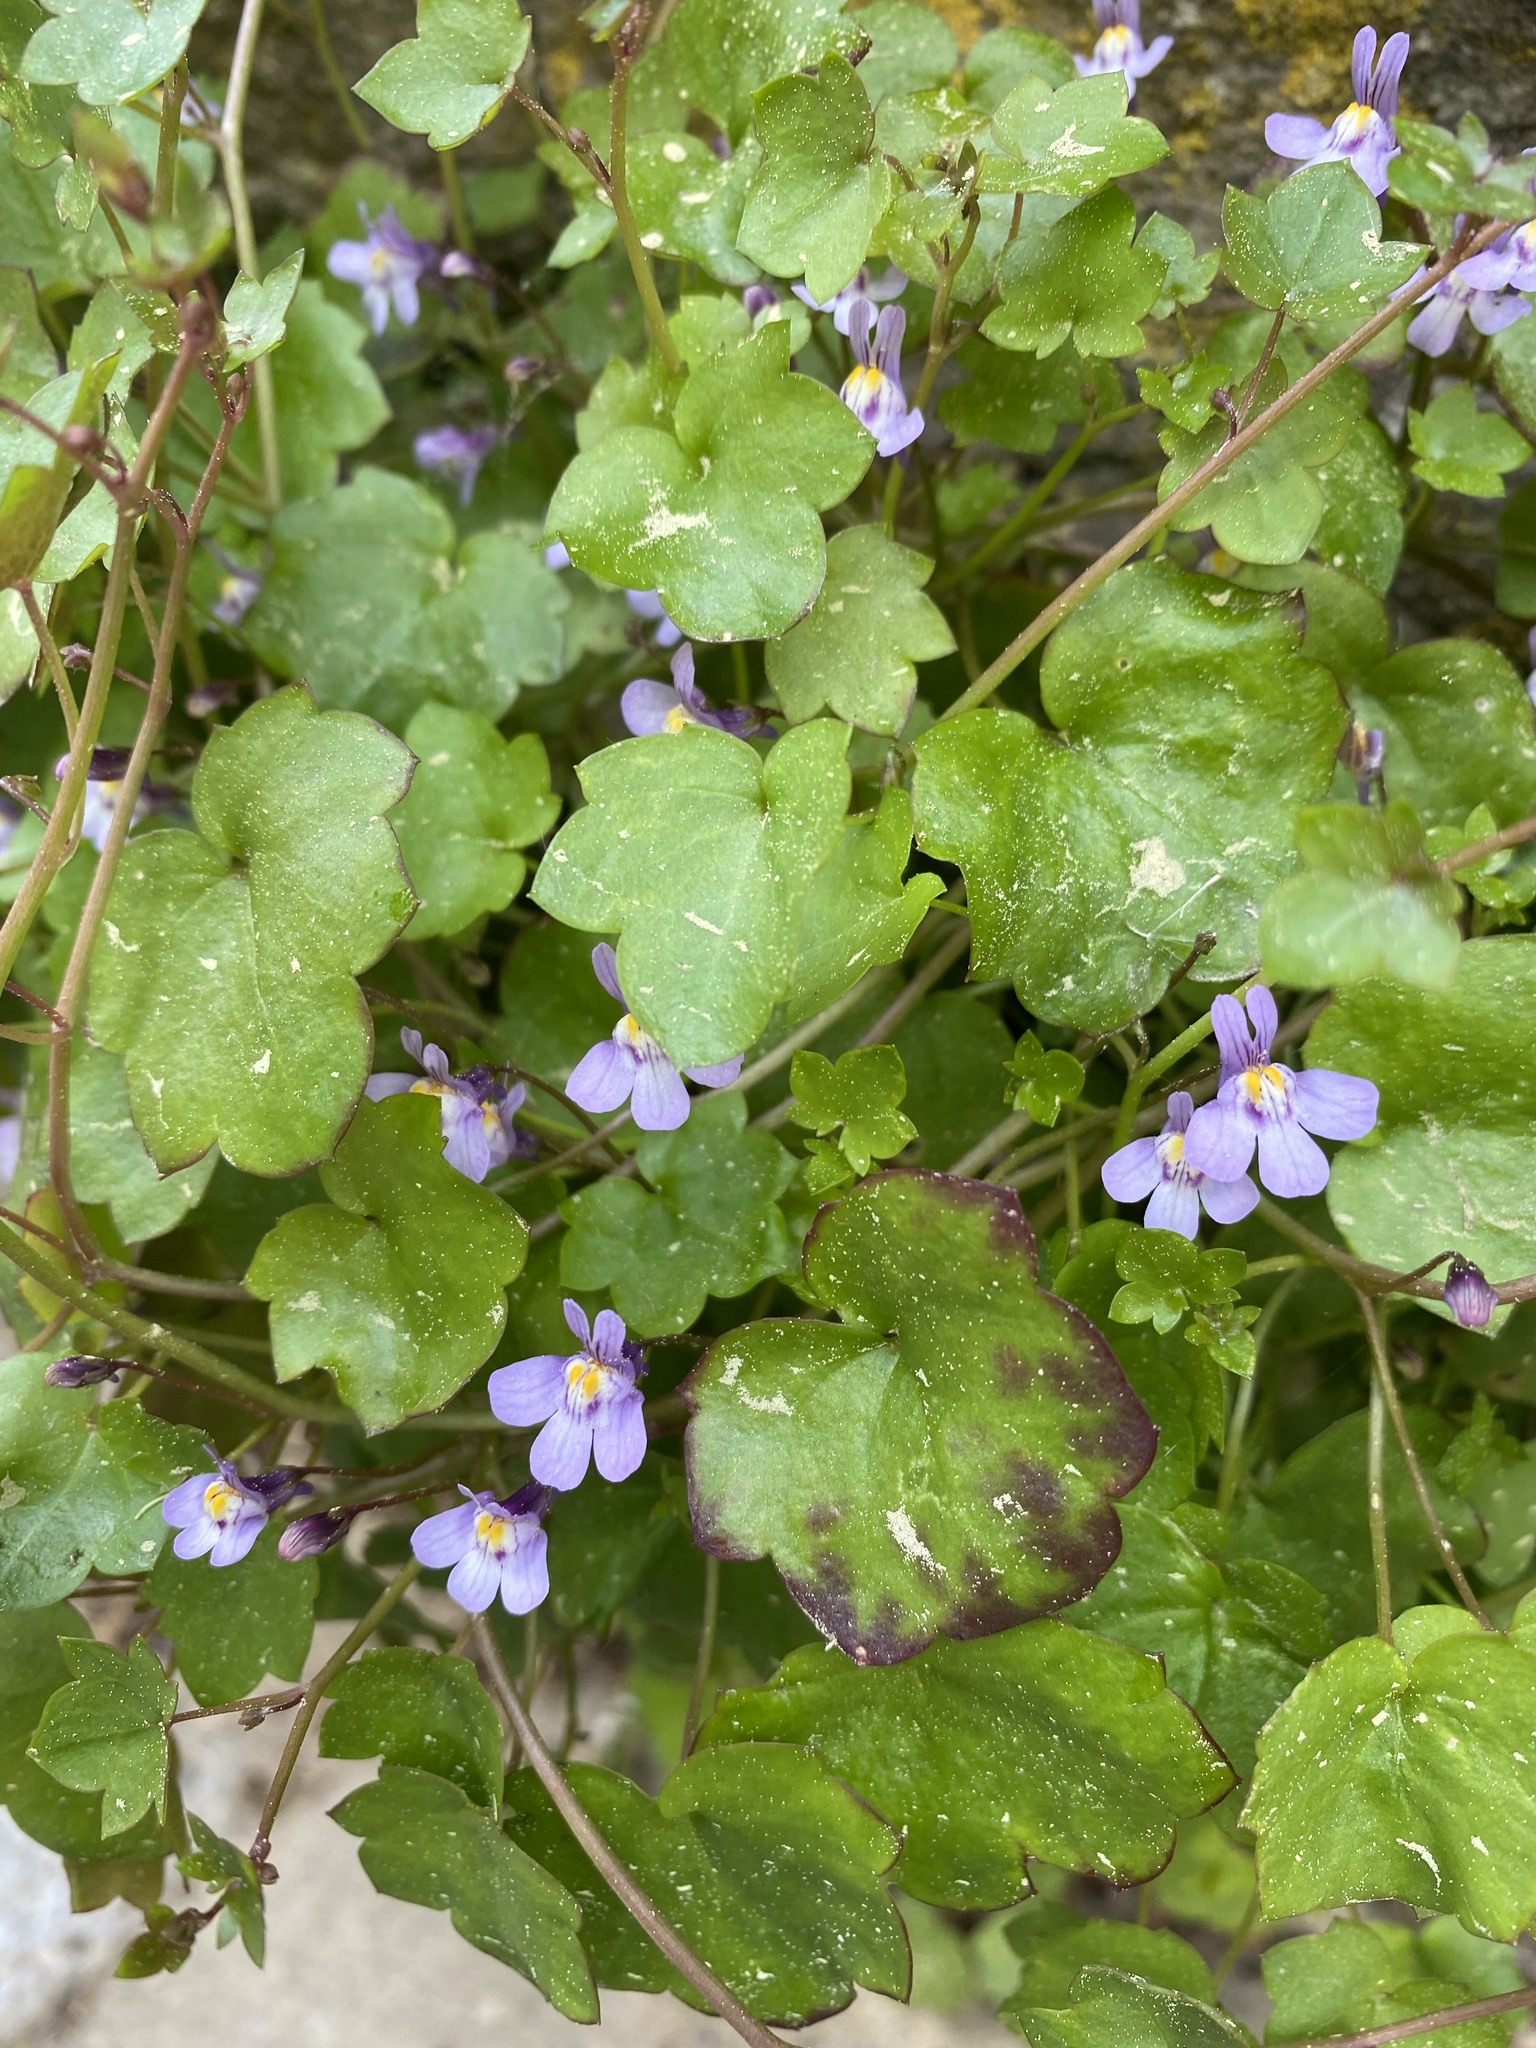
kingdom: Plantae
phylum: Tracheophyta
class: Magnoliopsida
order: Lamiales
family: Plantaginaceae
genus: Cymbalaria
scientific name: Cymbalaria muralis
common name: Ivy-leaved toadflax
